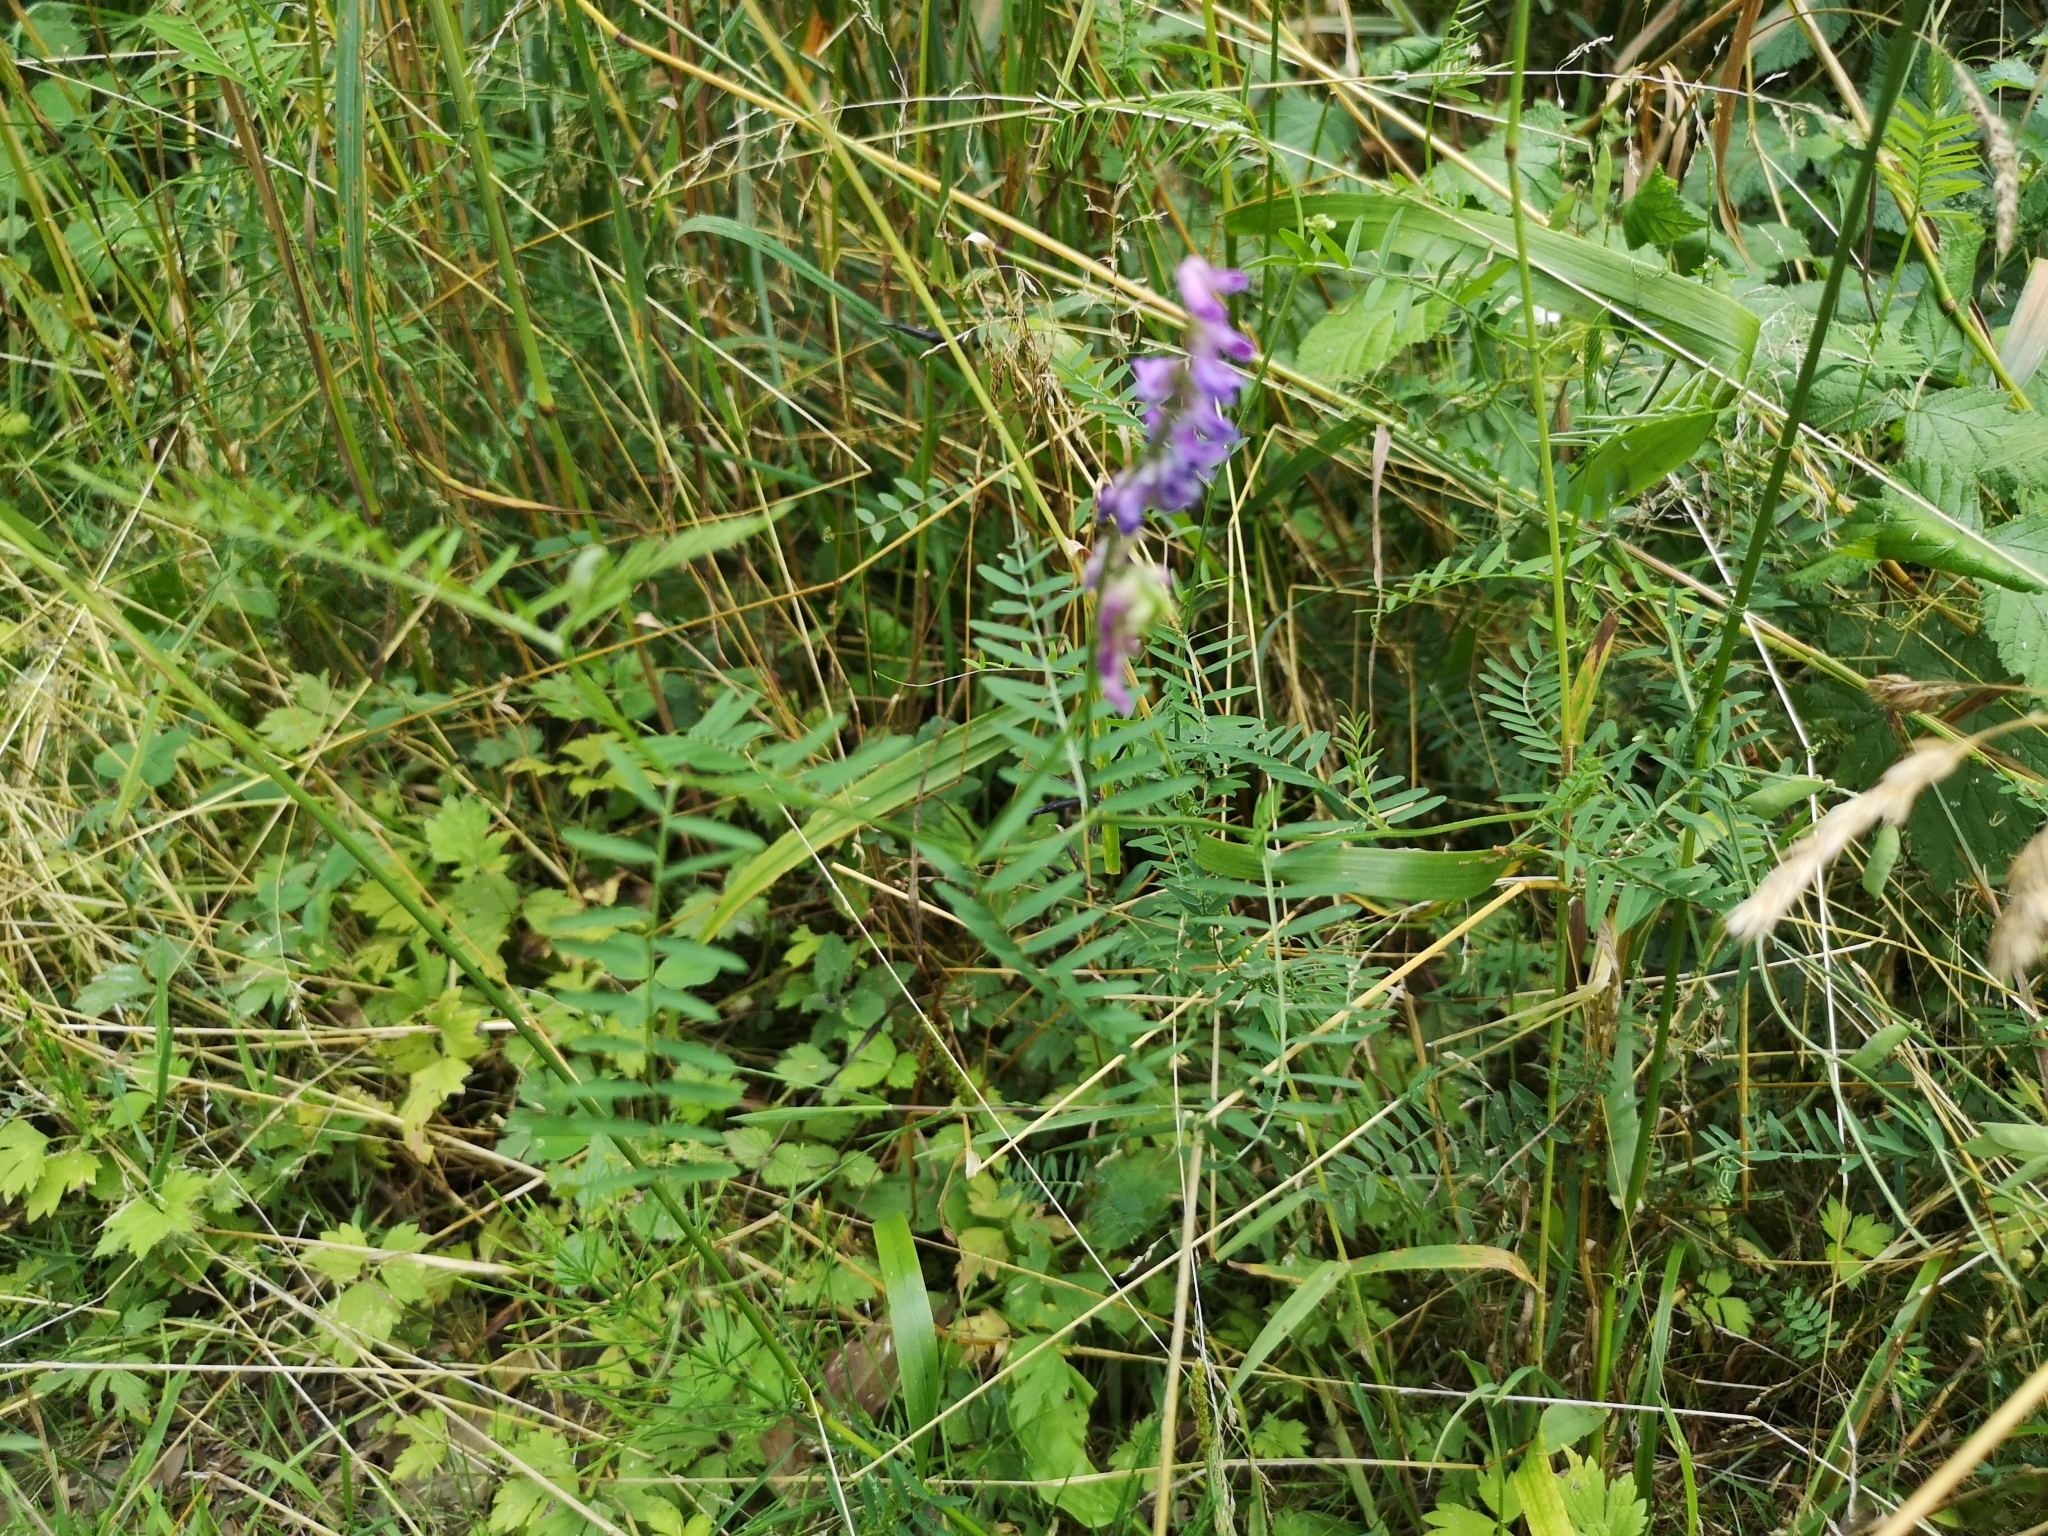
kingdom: Plantae
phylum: Tracheophyta
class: Magnoliopsida
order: Fabales
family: Fabaceae
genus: Vicia
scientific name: Vicia cracca
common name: Bird vetch
